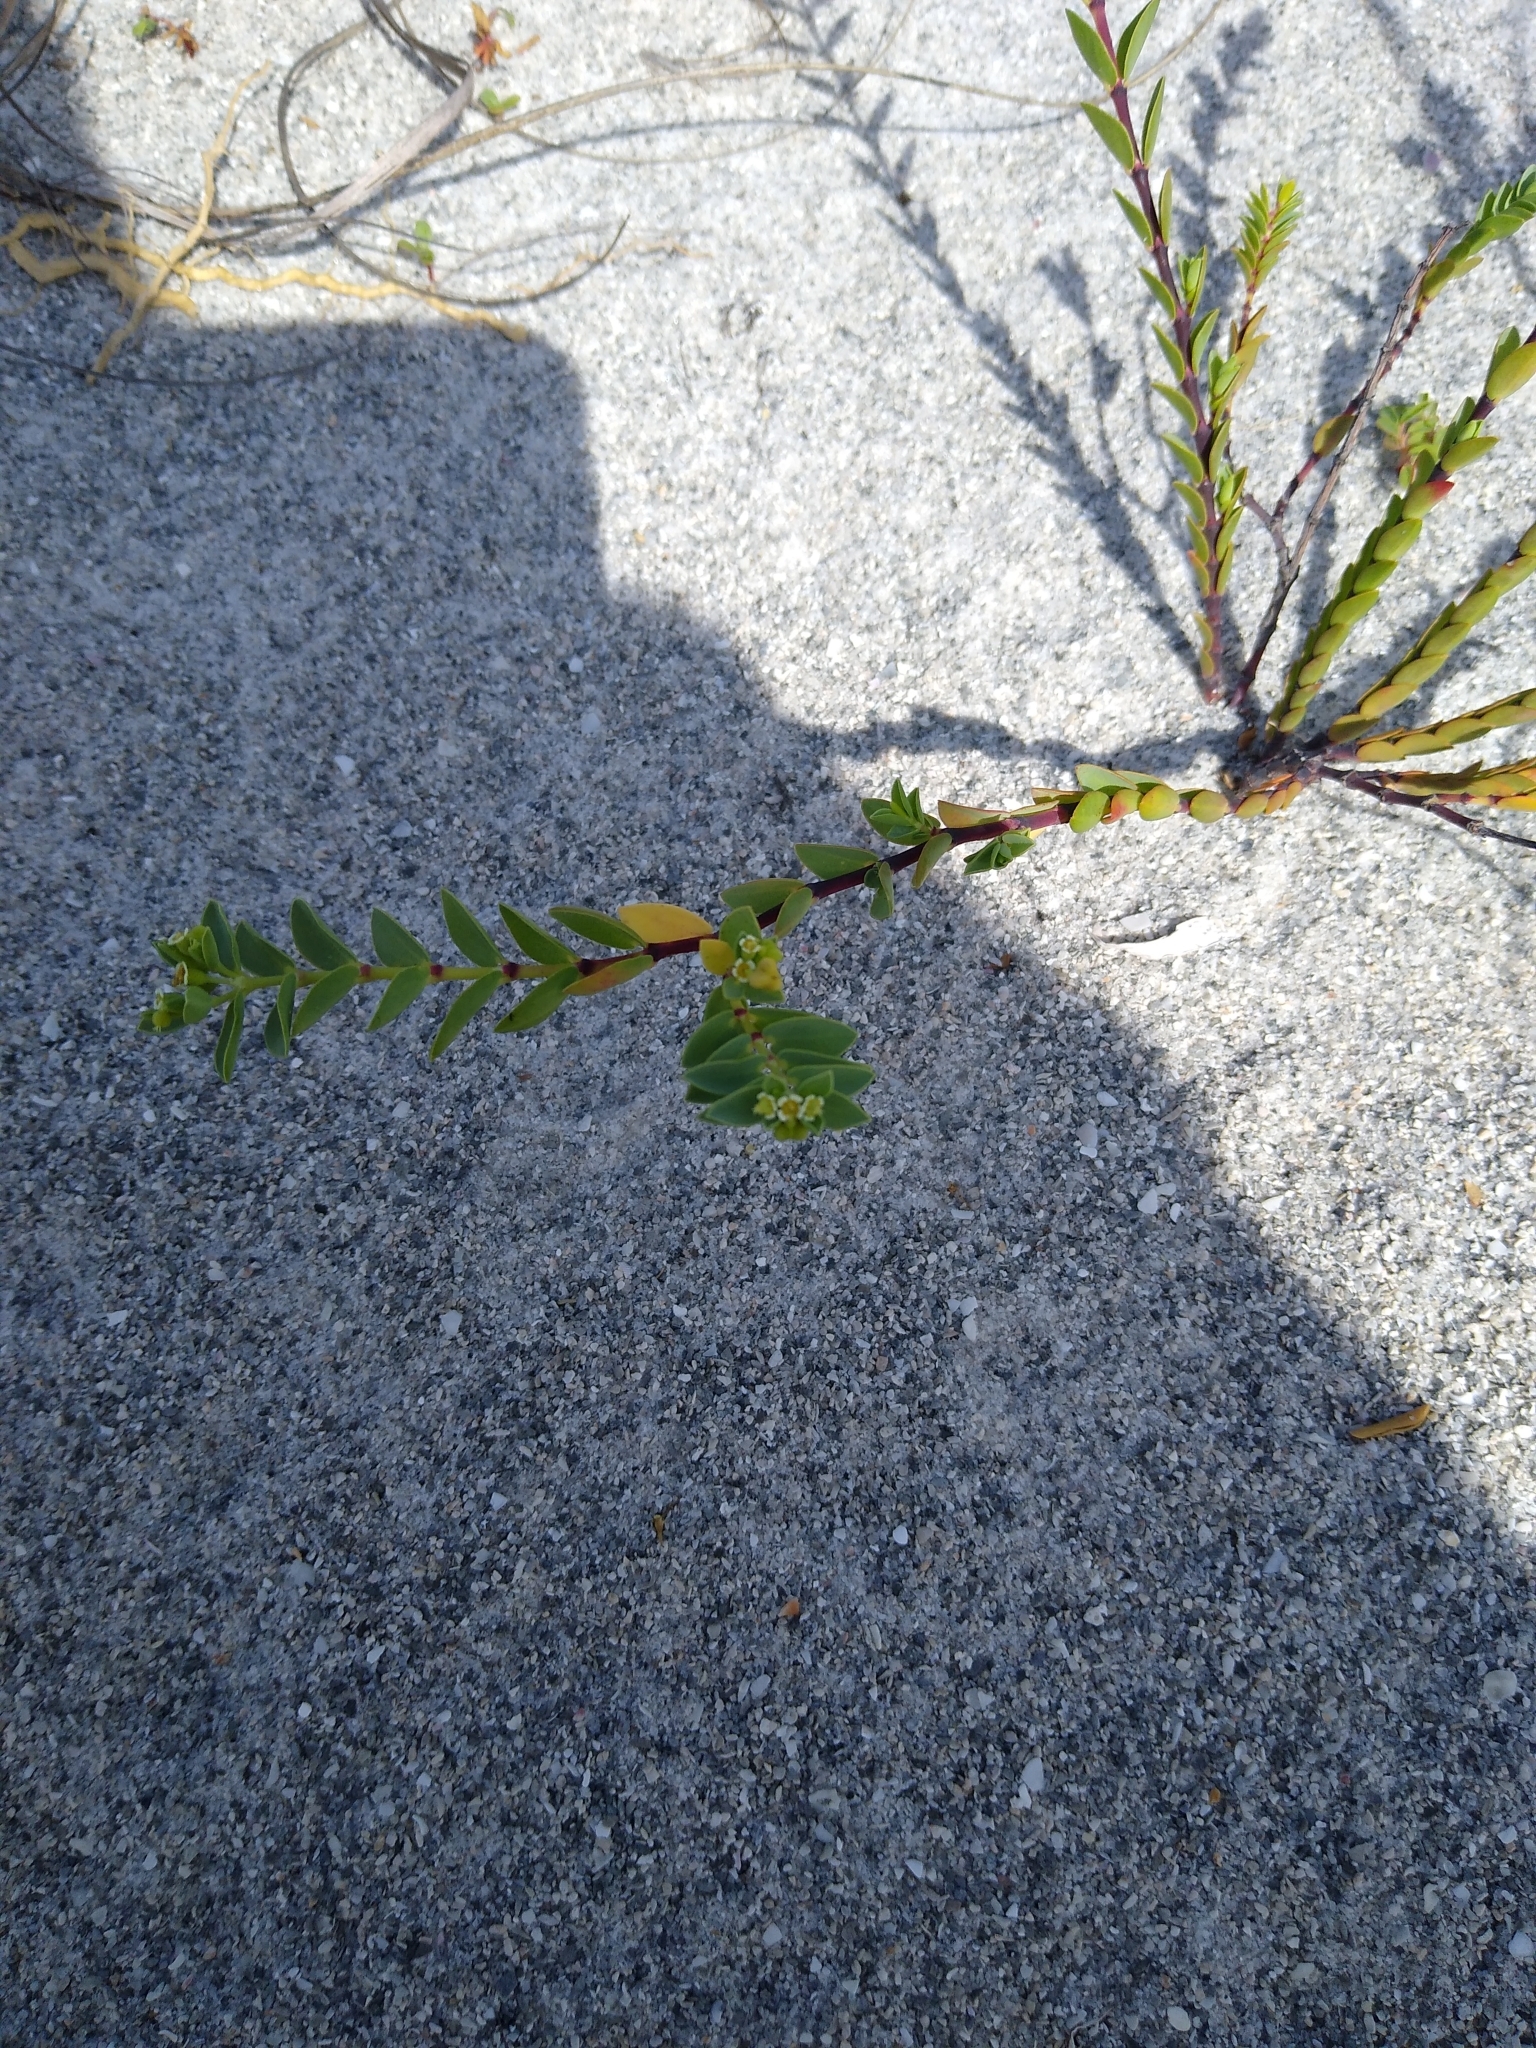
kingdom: Plantae
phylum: Tracheophyta
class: Magnoliopsida
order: Malpighiales
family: Euphorbiaceae
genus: Euphorbia
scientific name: Euphorbia mesembryanthemifolia
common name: Coastal beach sandmat
